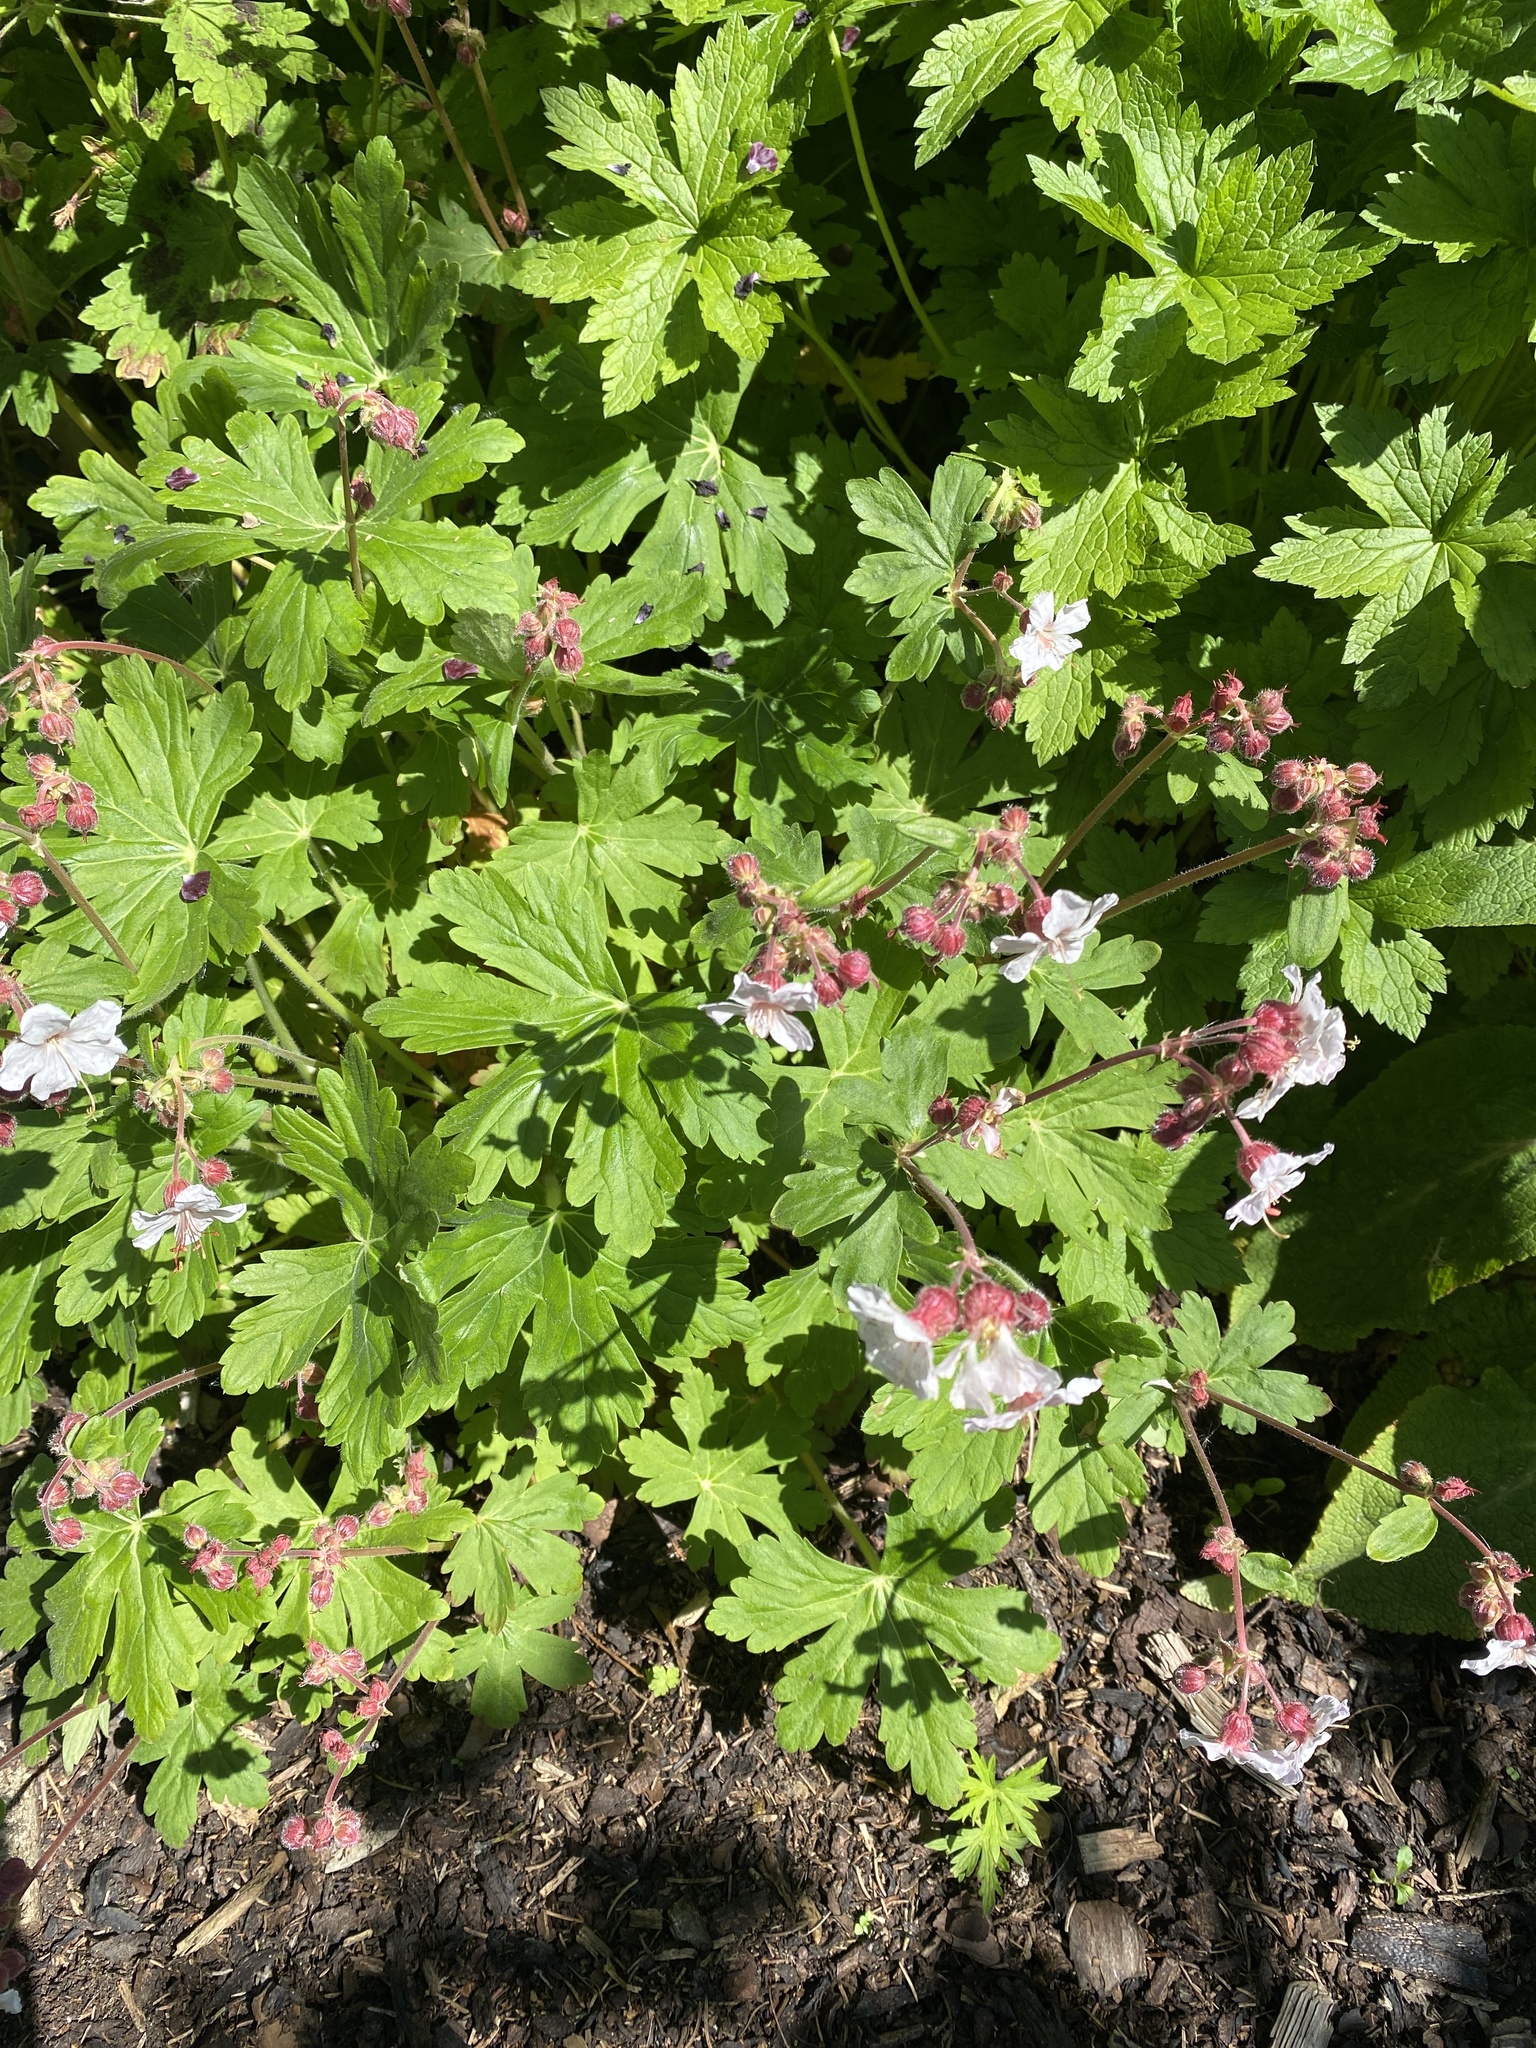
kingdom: Plantae
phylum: Tracheophyta
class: Magnoliopsida
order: Geraniales
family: Geraniaceae
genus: Geranium
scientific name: Geranium macrorrhizum
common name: Rock crane's-bill
